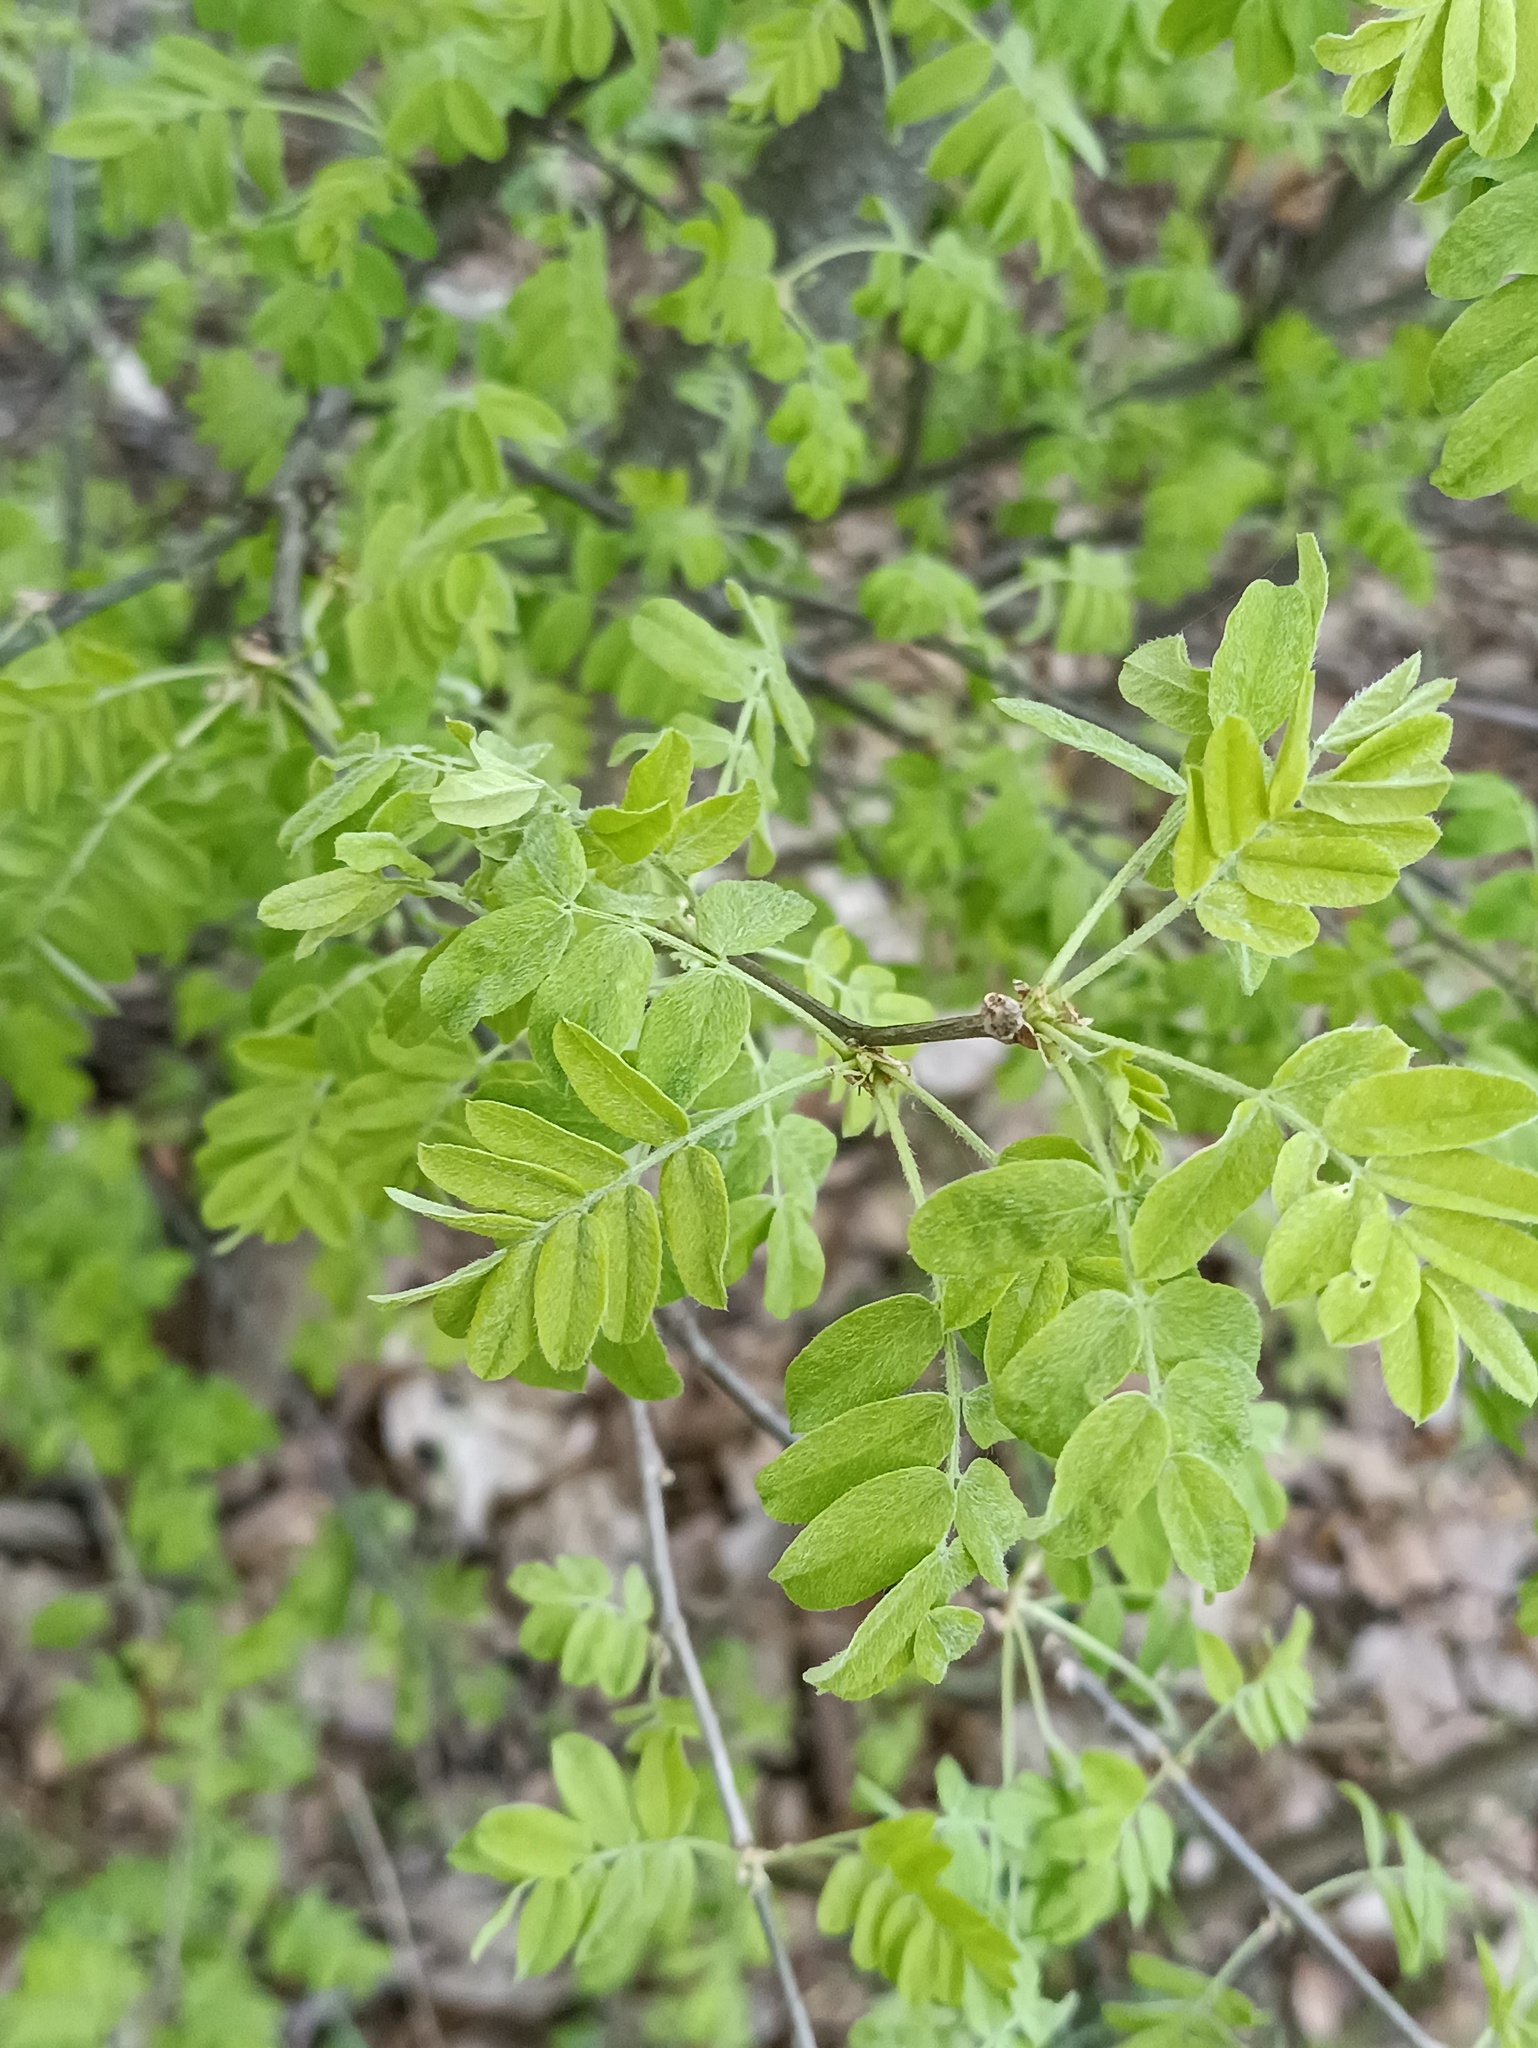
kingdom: Plantae
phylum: Tracheophyta
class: Magnoliopsida
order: Fabales
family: Fabaceae
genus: Caragana
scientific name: Caragana arborescens
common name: Siberian peashrub
